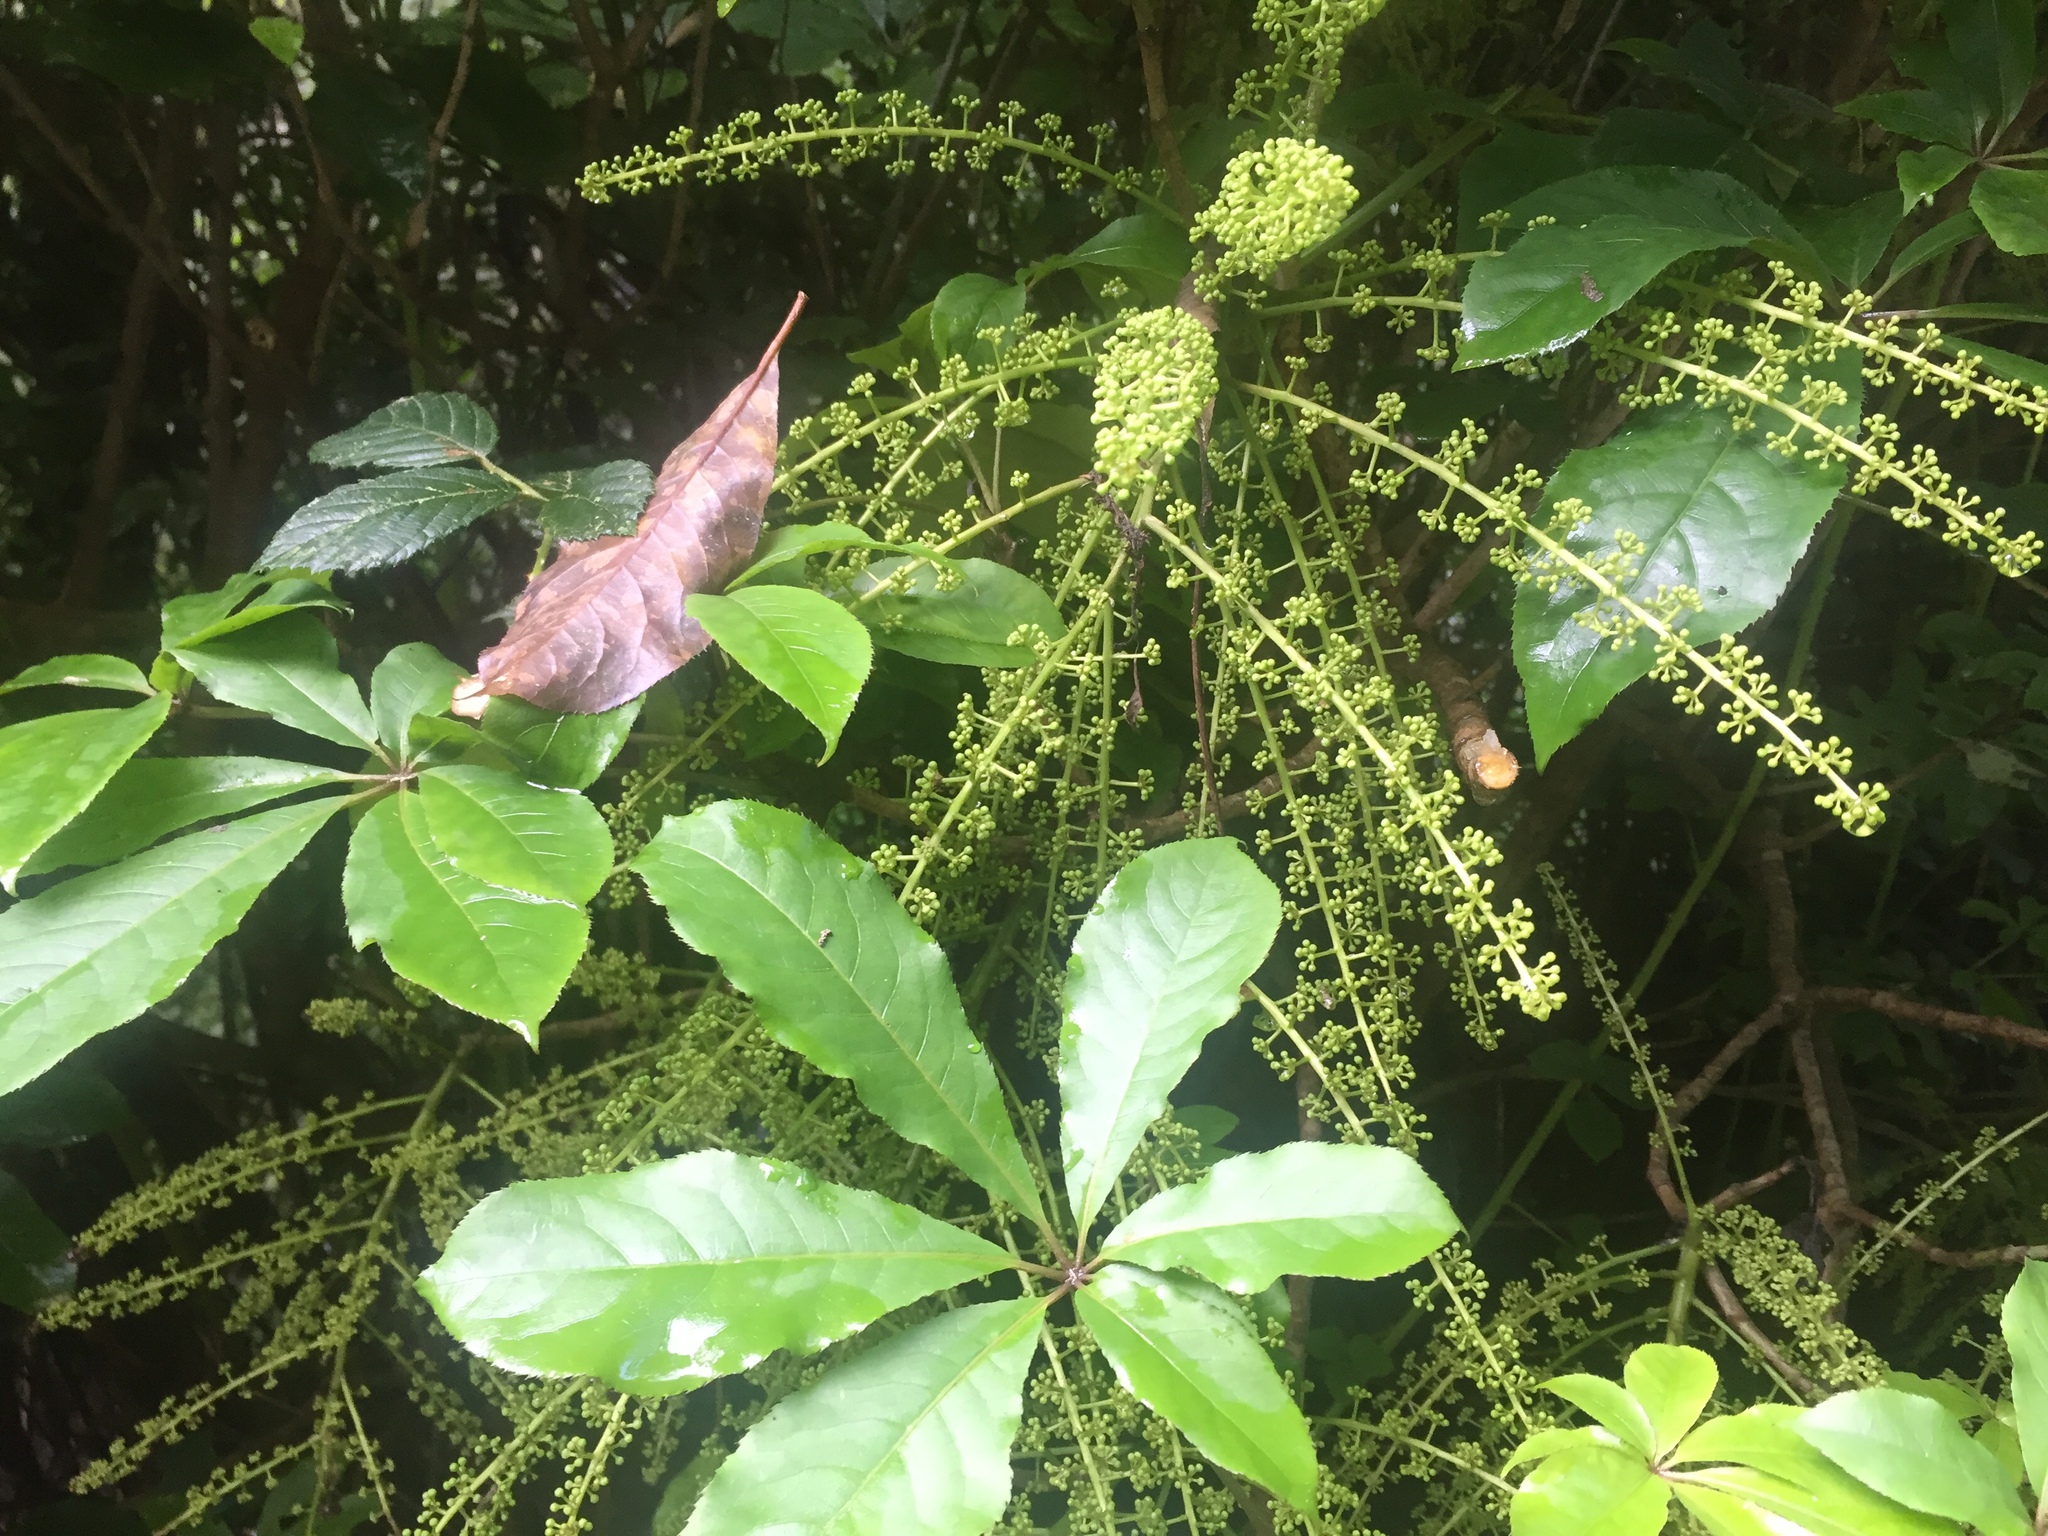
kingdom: Plantae
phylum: Tracheophyta
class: Magnoliopsida
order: Apiales
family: Araliaceae
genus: Schefflera
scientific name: Schefflera digitata
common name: Pate
